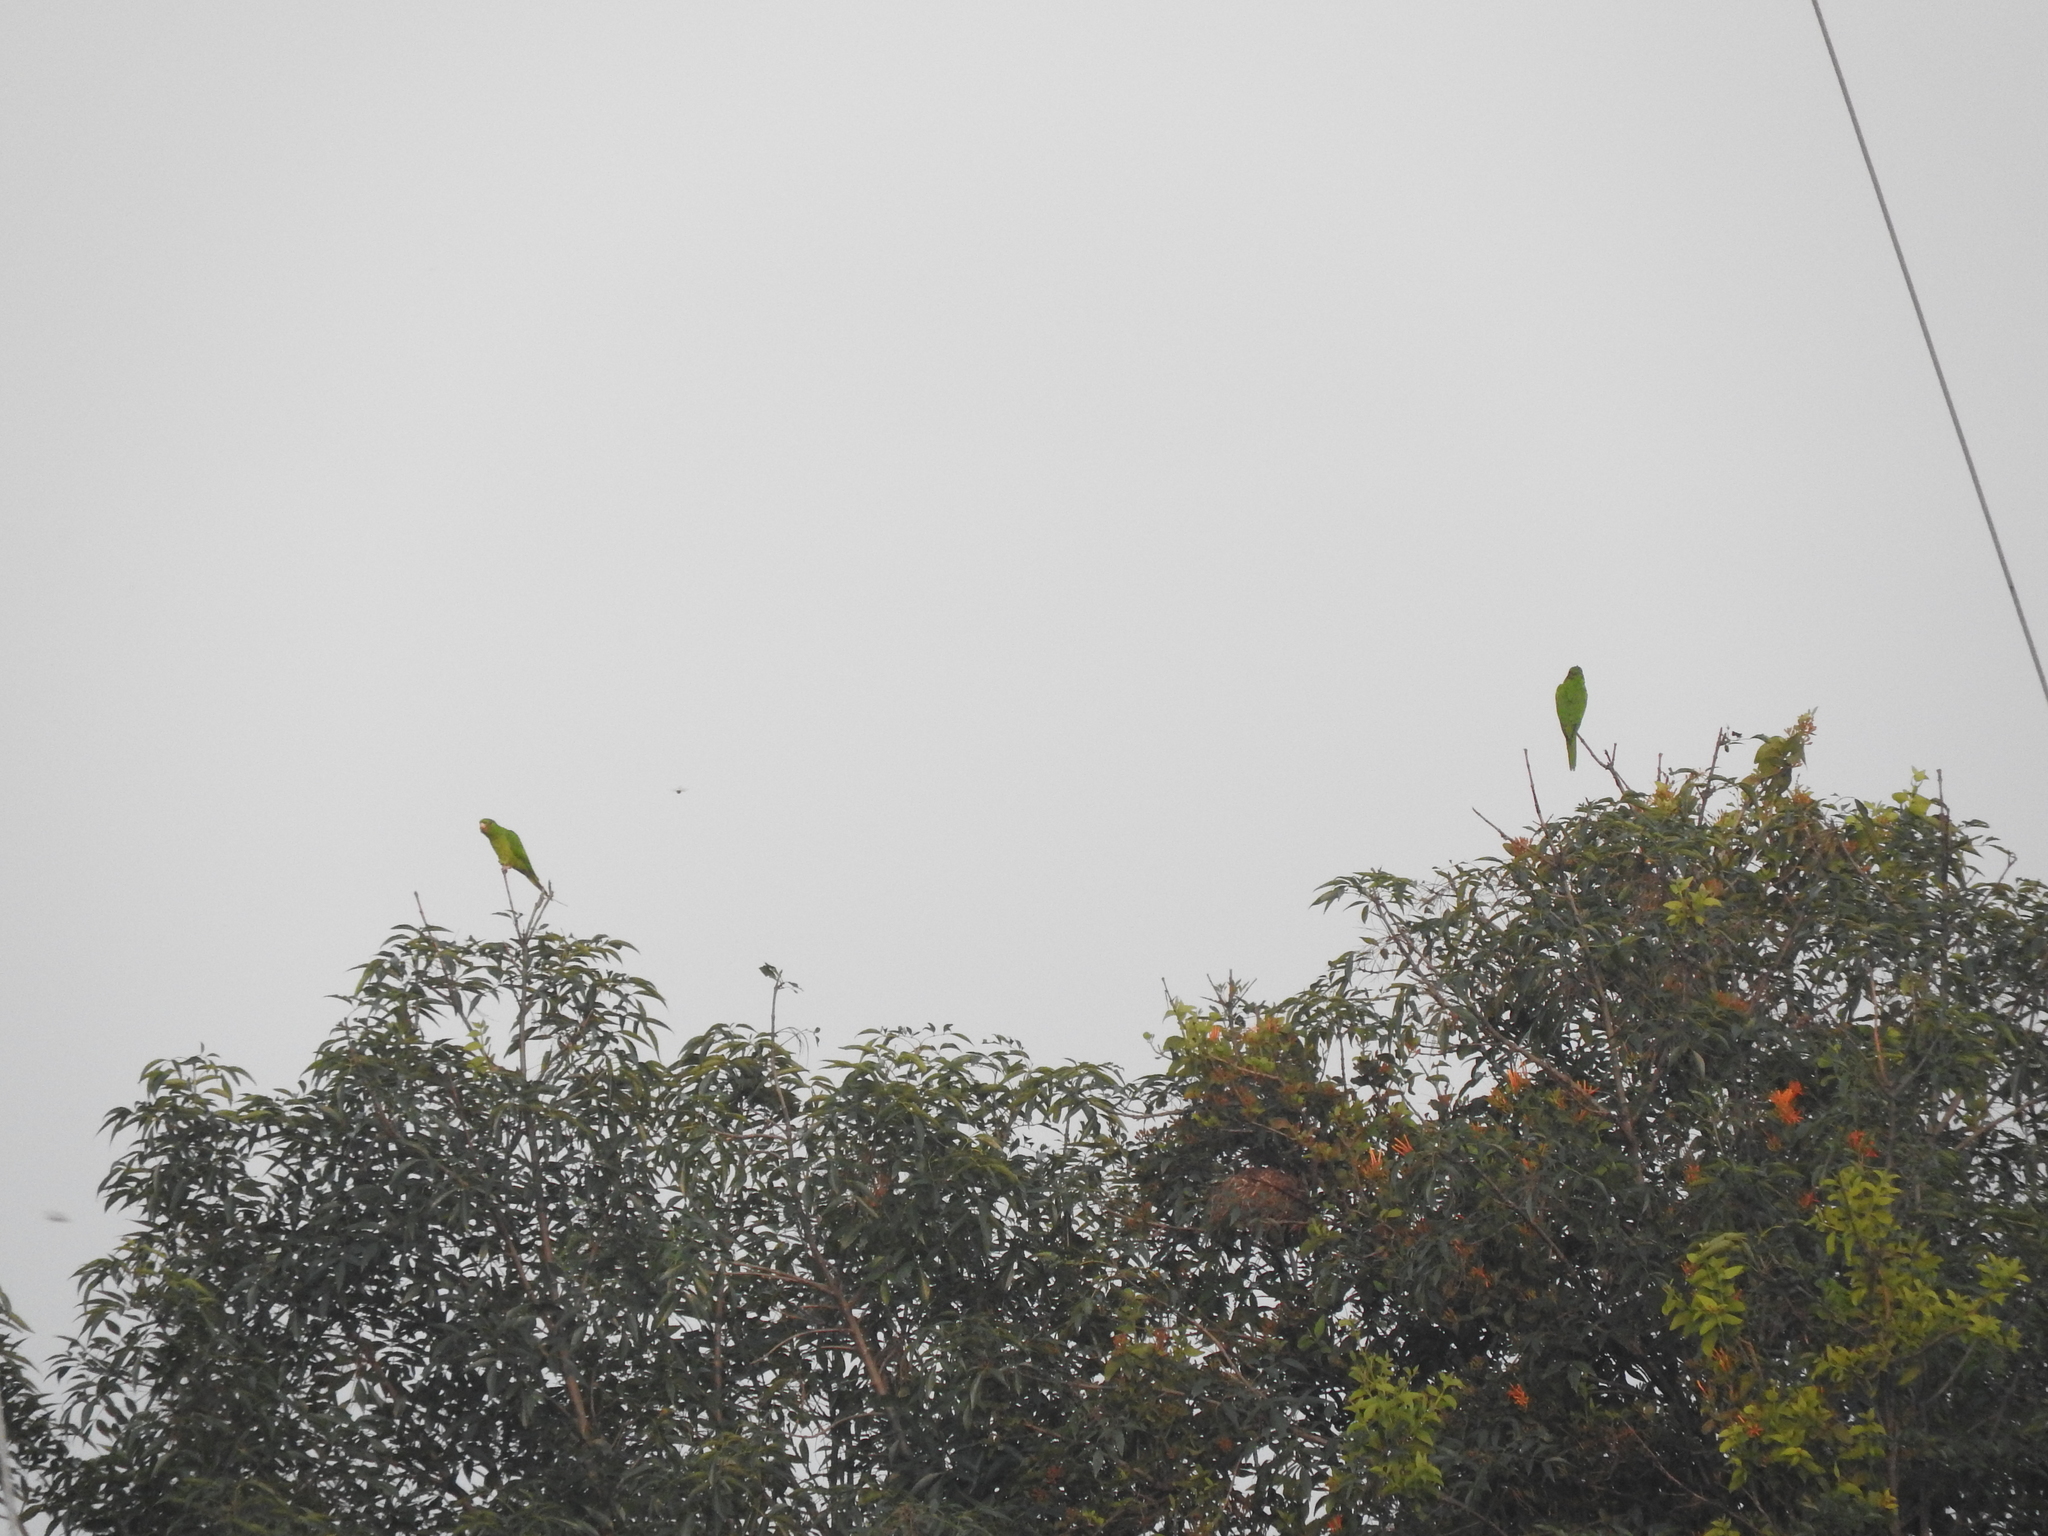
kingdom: Animalia
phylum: Chordata
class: Aves
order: Psittaciformes
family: Psittacidae
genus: Aratinga
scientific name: Aratinga holochlora
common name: Green parakeet
